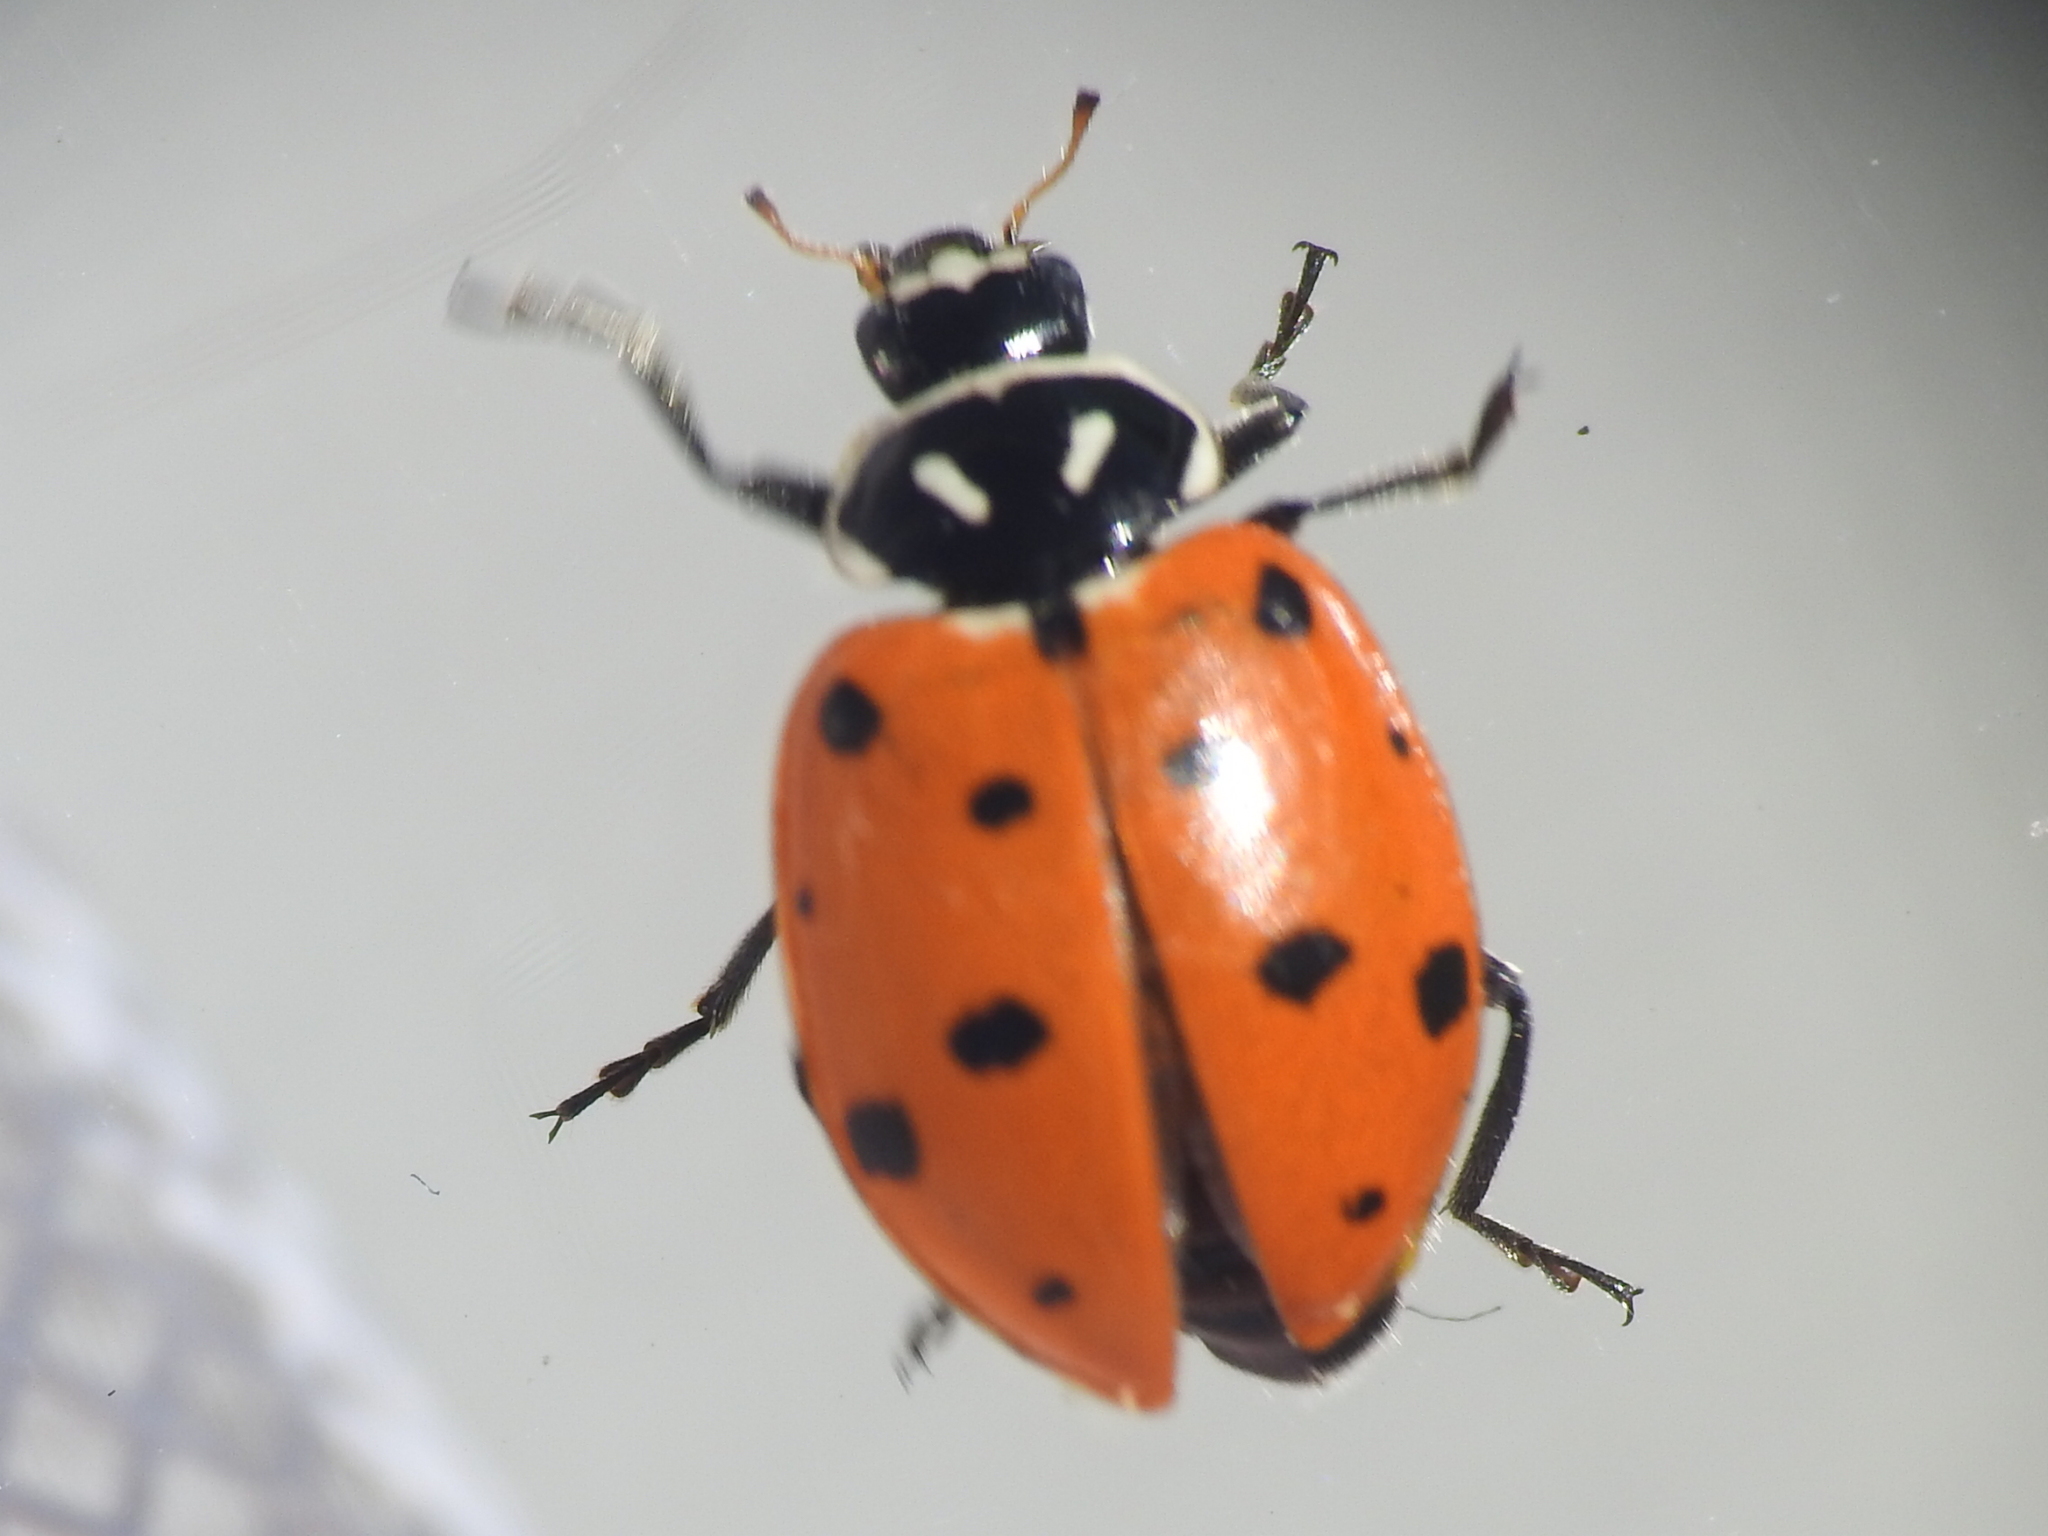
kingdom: Animalia
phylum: Arthropoda
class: Insecta
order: Coleoptera
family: Coccinellidae
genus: Hippodamia
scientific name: Hippodamia convergens
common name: Convergent lady beetle
